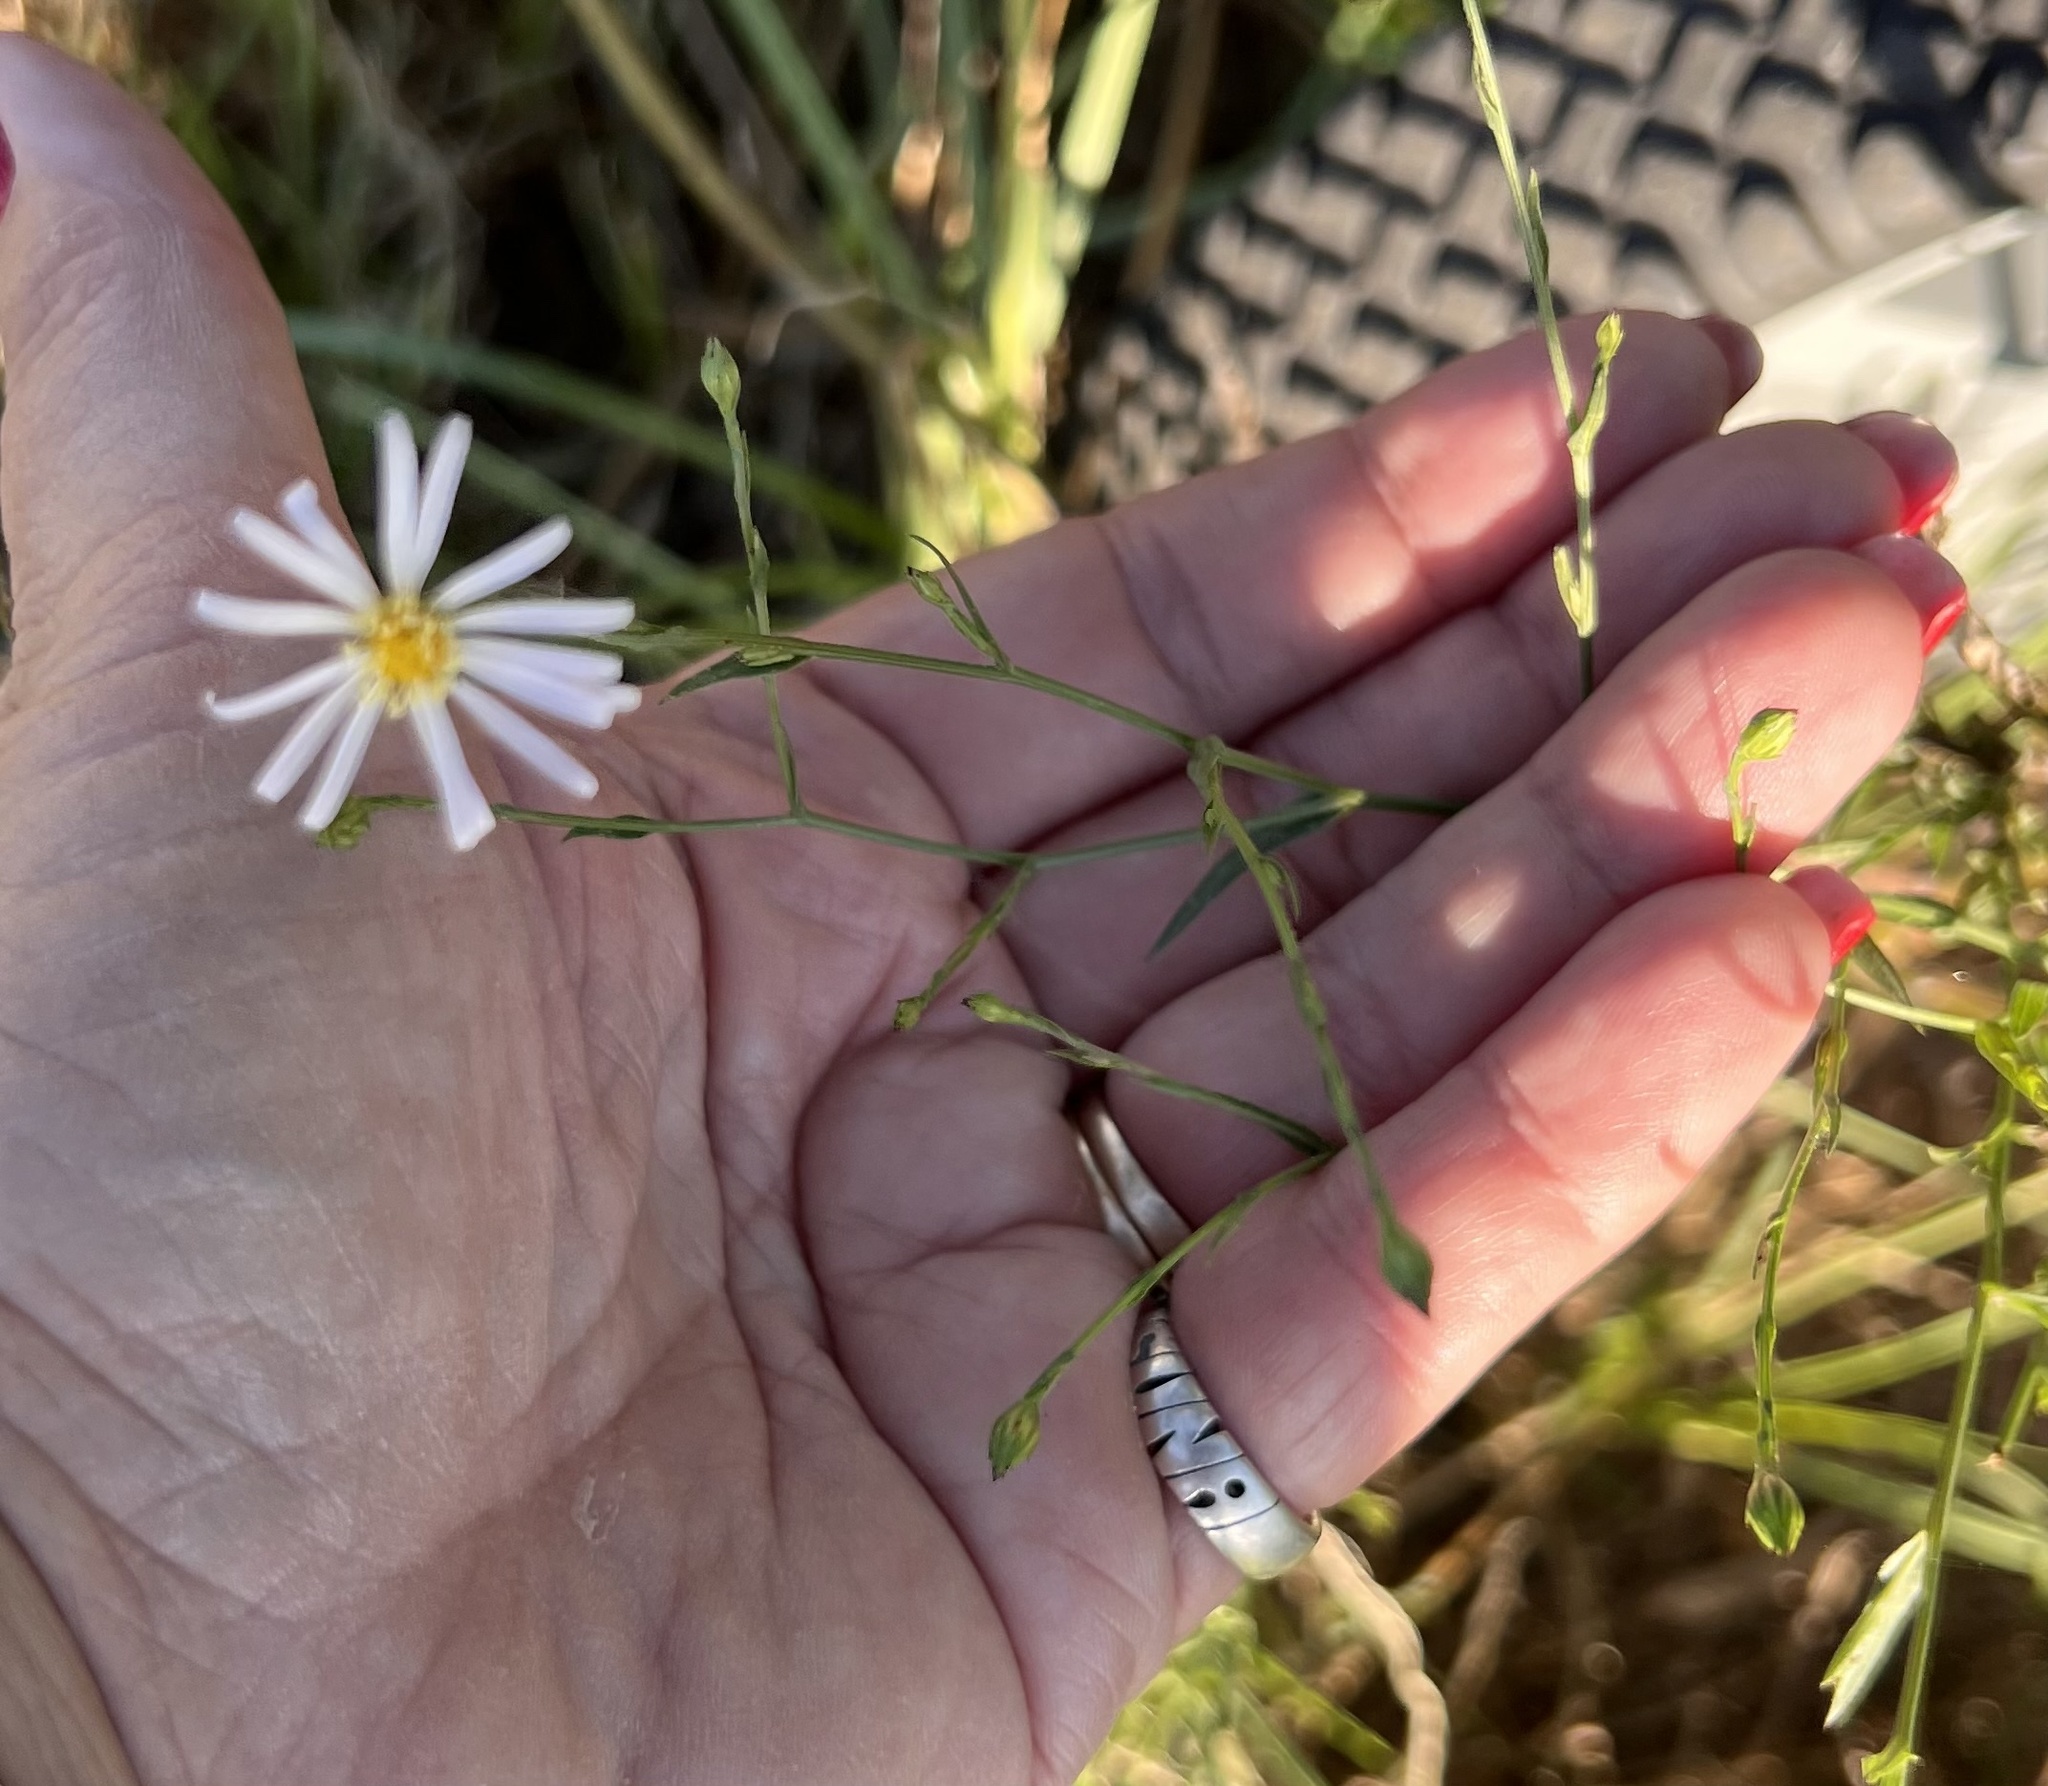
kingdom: Plantae
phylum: Tracheophyta
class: Magnoliopsida
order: Asterales
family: Asteraceae
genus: Symphyotrichum
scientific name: Symphyotrichum divaricatum
